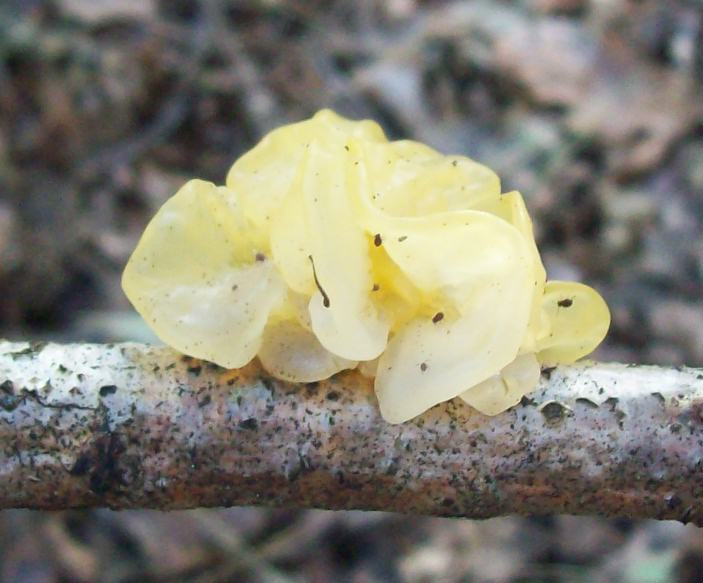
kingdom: Fungi
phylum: Basidiomycota
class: Tremellomycetes
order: Tremellales
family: Tremellaceae
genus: Tremella
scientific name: Tremella mesenterica
